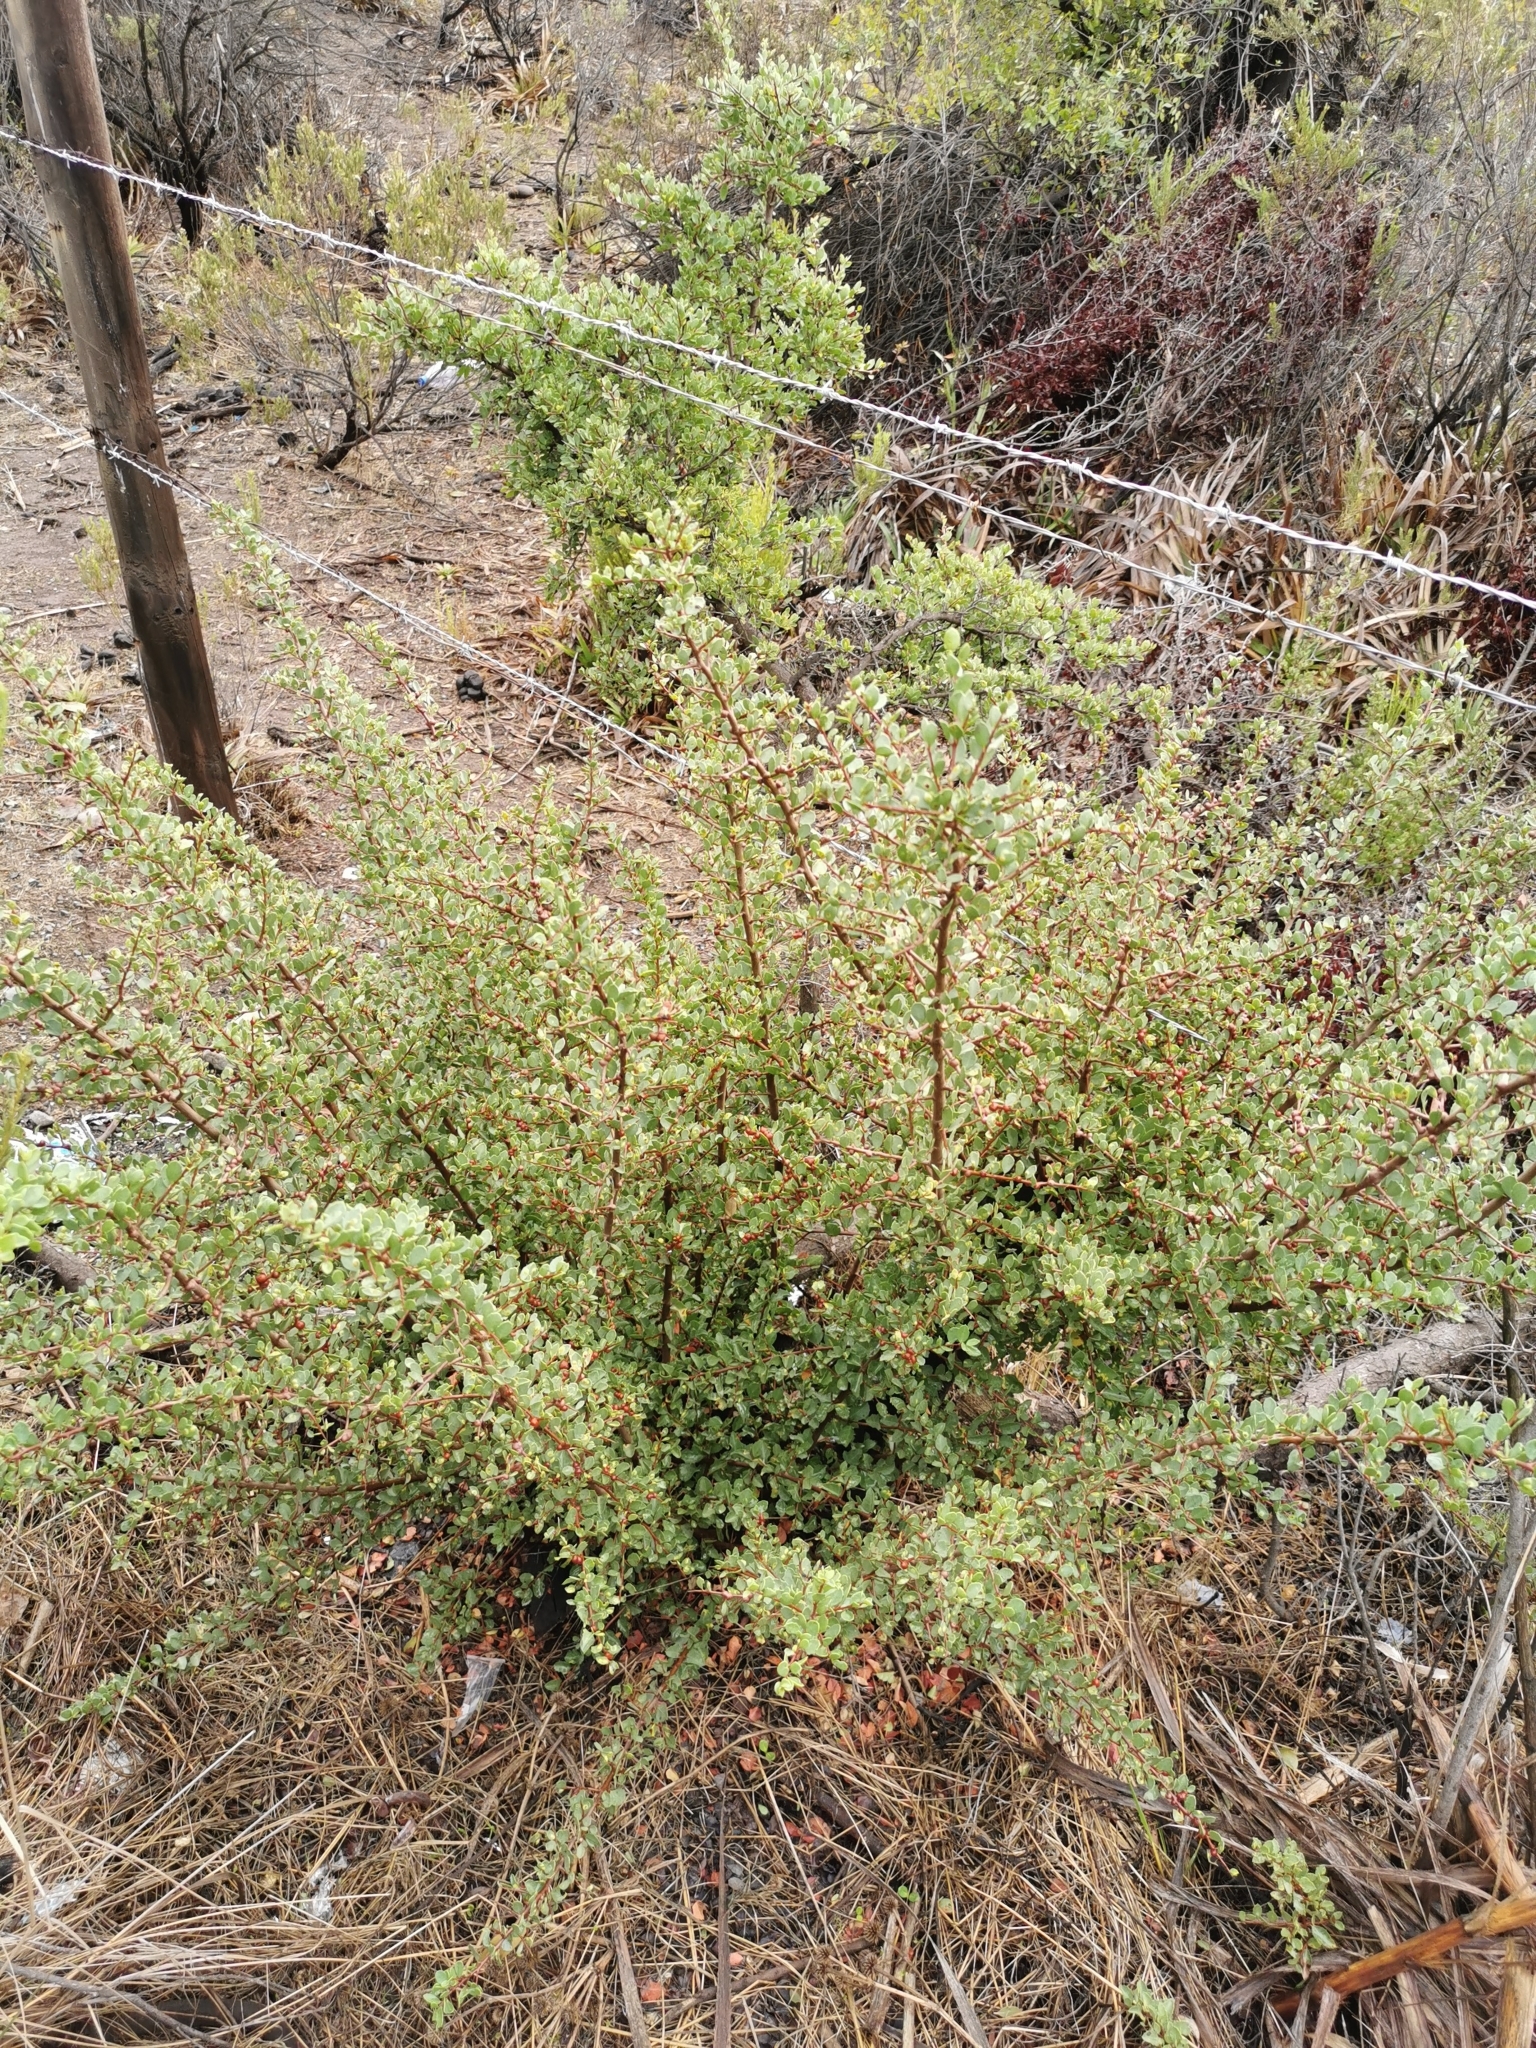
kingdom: Plantae
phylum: Tracheophyta
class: Magnoliopsida
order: Sapindales
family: Anacardiaceae
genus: Schinus
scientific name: Schinus polygama
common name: Hardee peppertree
